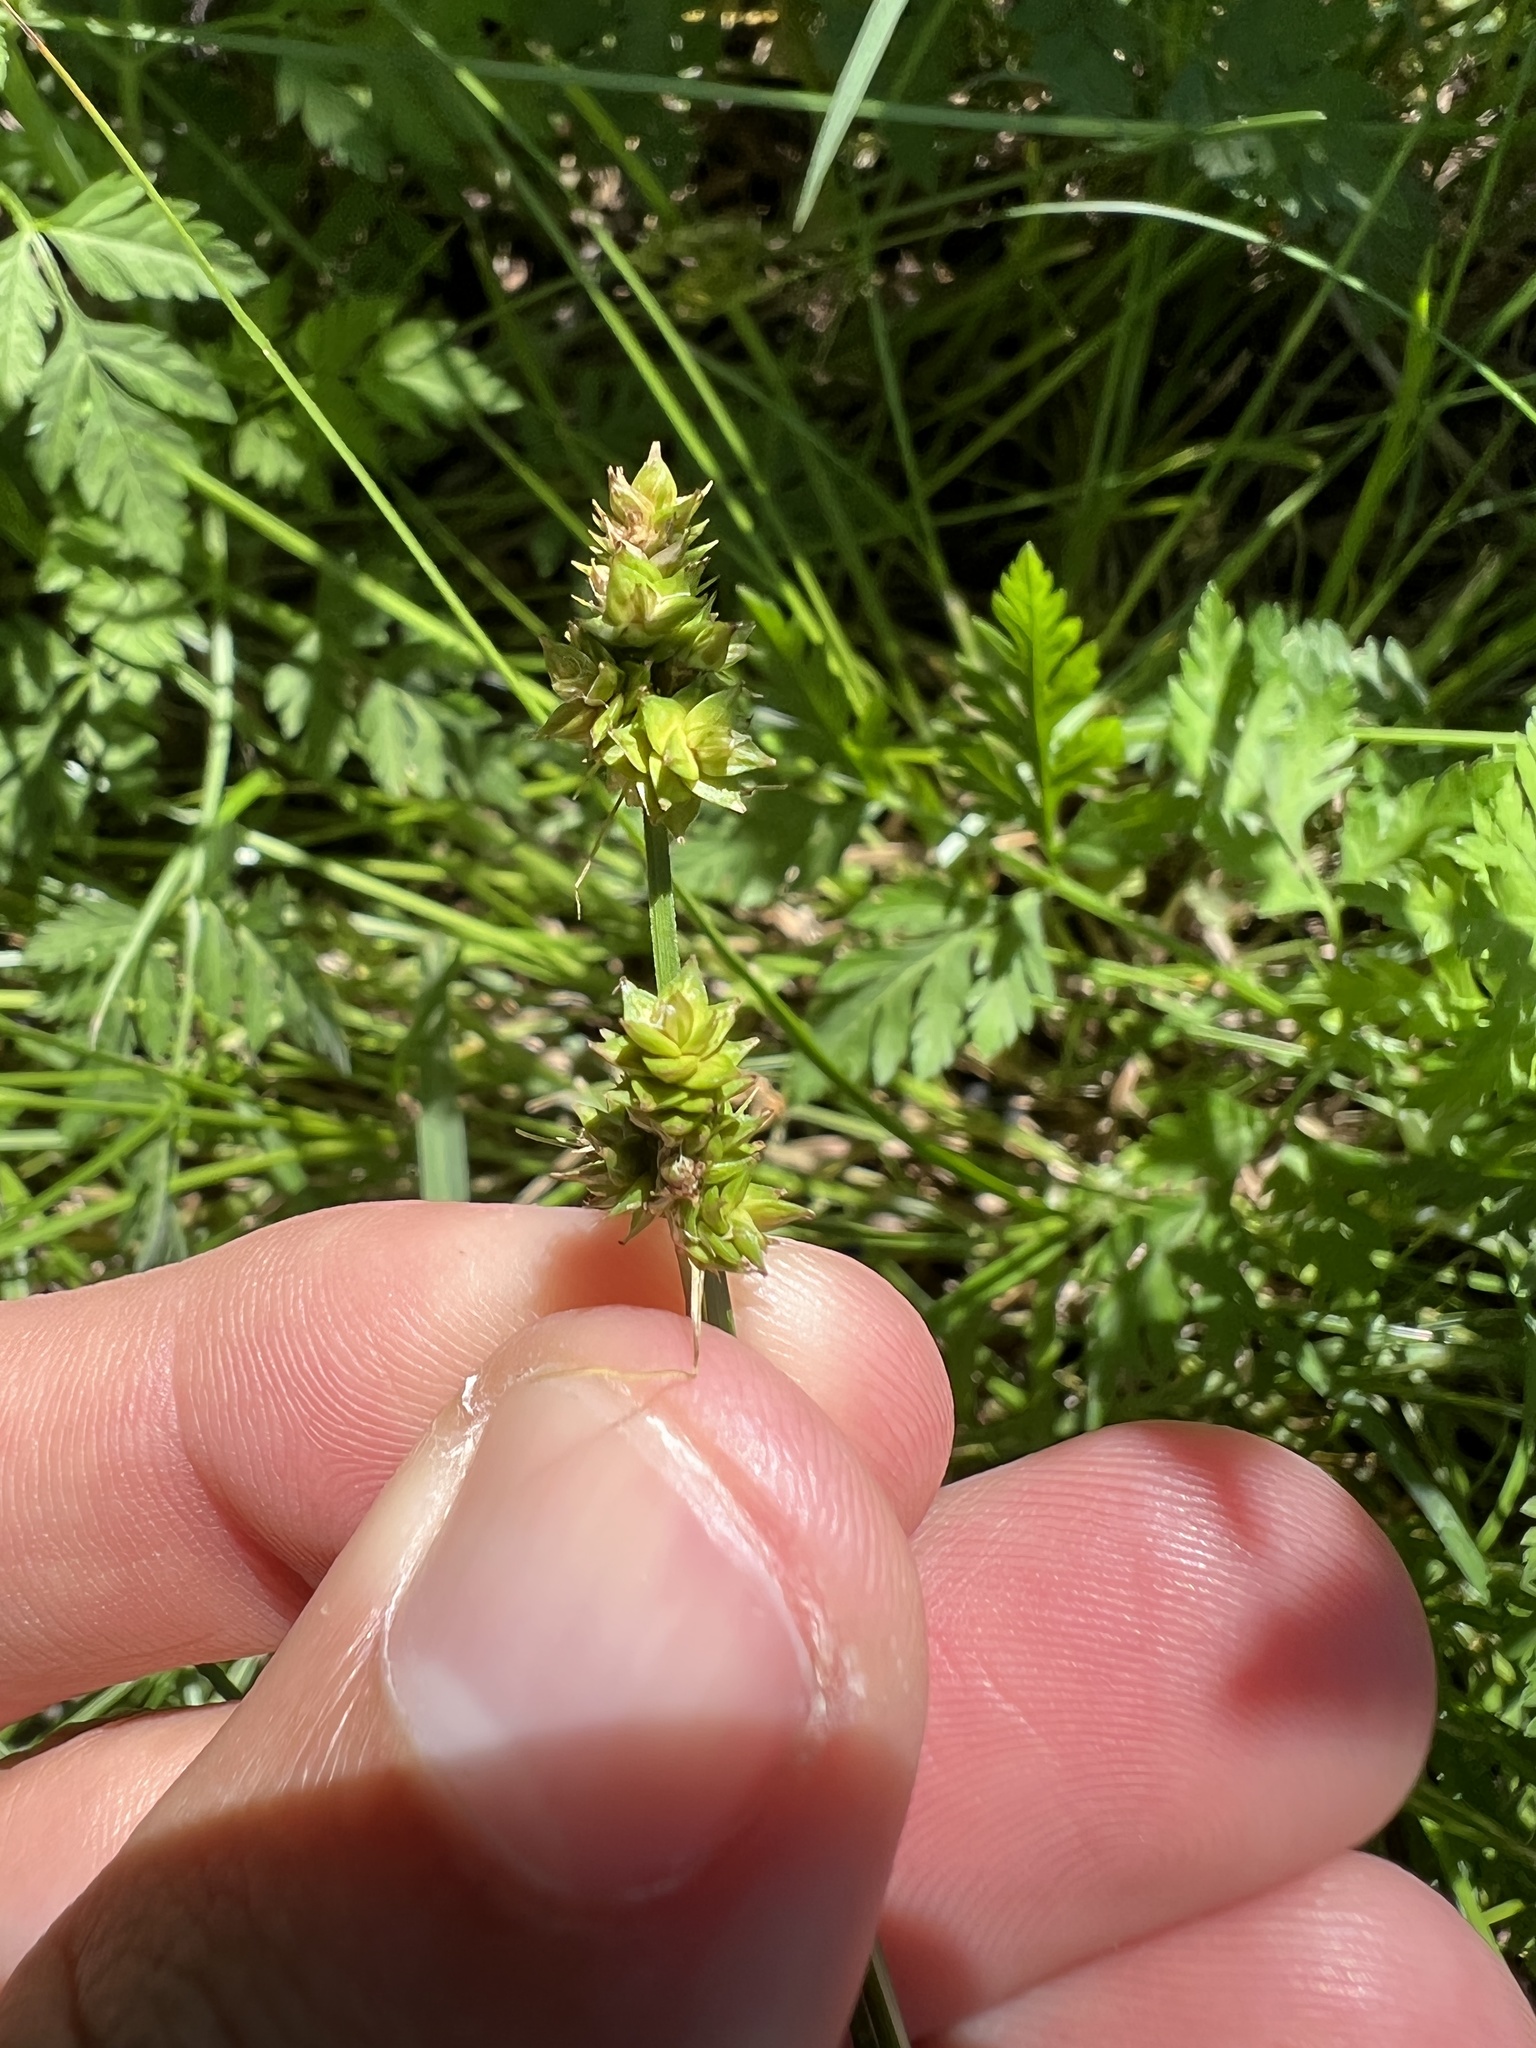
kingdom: Plantae
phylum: Tracheophyta
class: Liliopsida
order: Poales
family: Cyperaceae
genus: Carex
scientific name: Carex leavenworthii
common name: Leavenworth's bracted sedge
